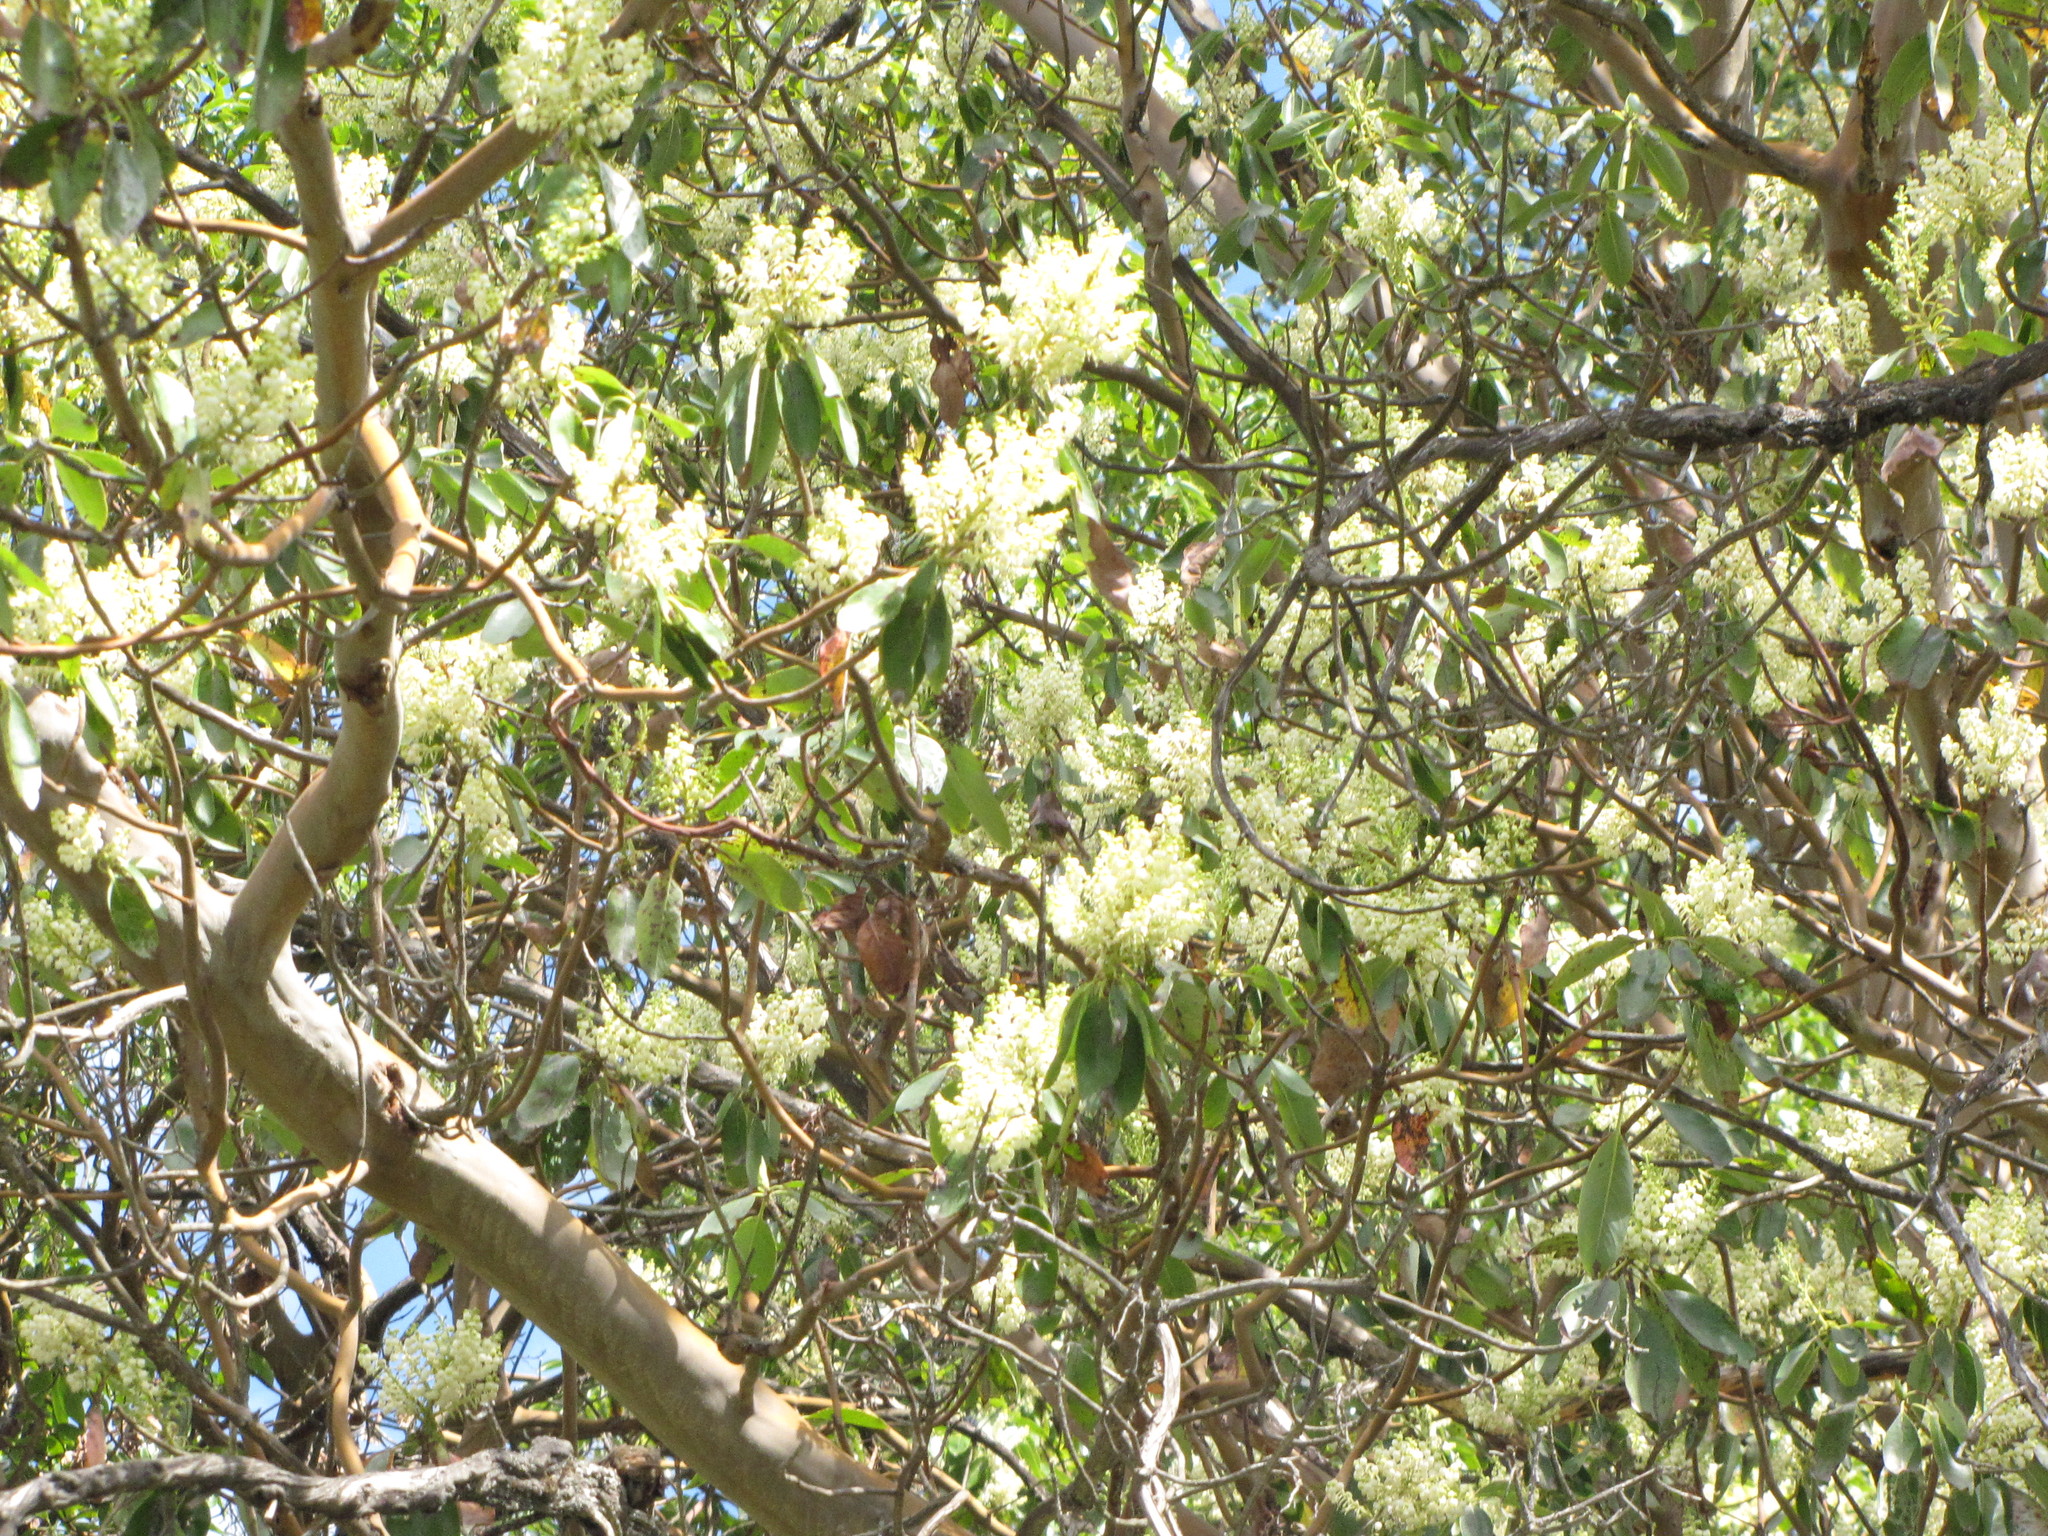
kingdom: Plantae
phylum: Tracheophyta
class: Magnoliopsida
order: Ericales
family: Ericaceae
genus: Arbutus
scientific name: Arbutus menziesii
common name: Pacific madrone
